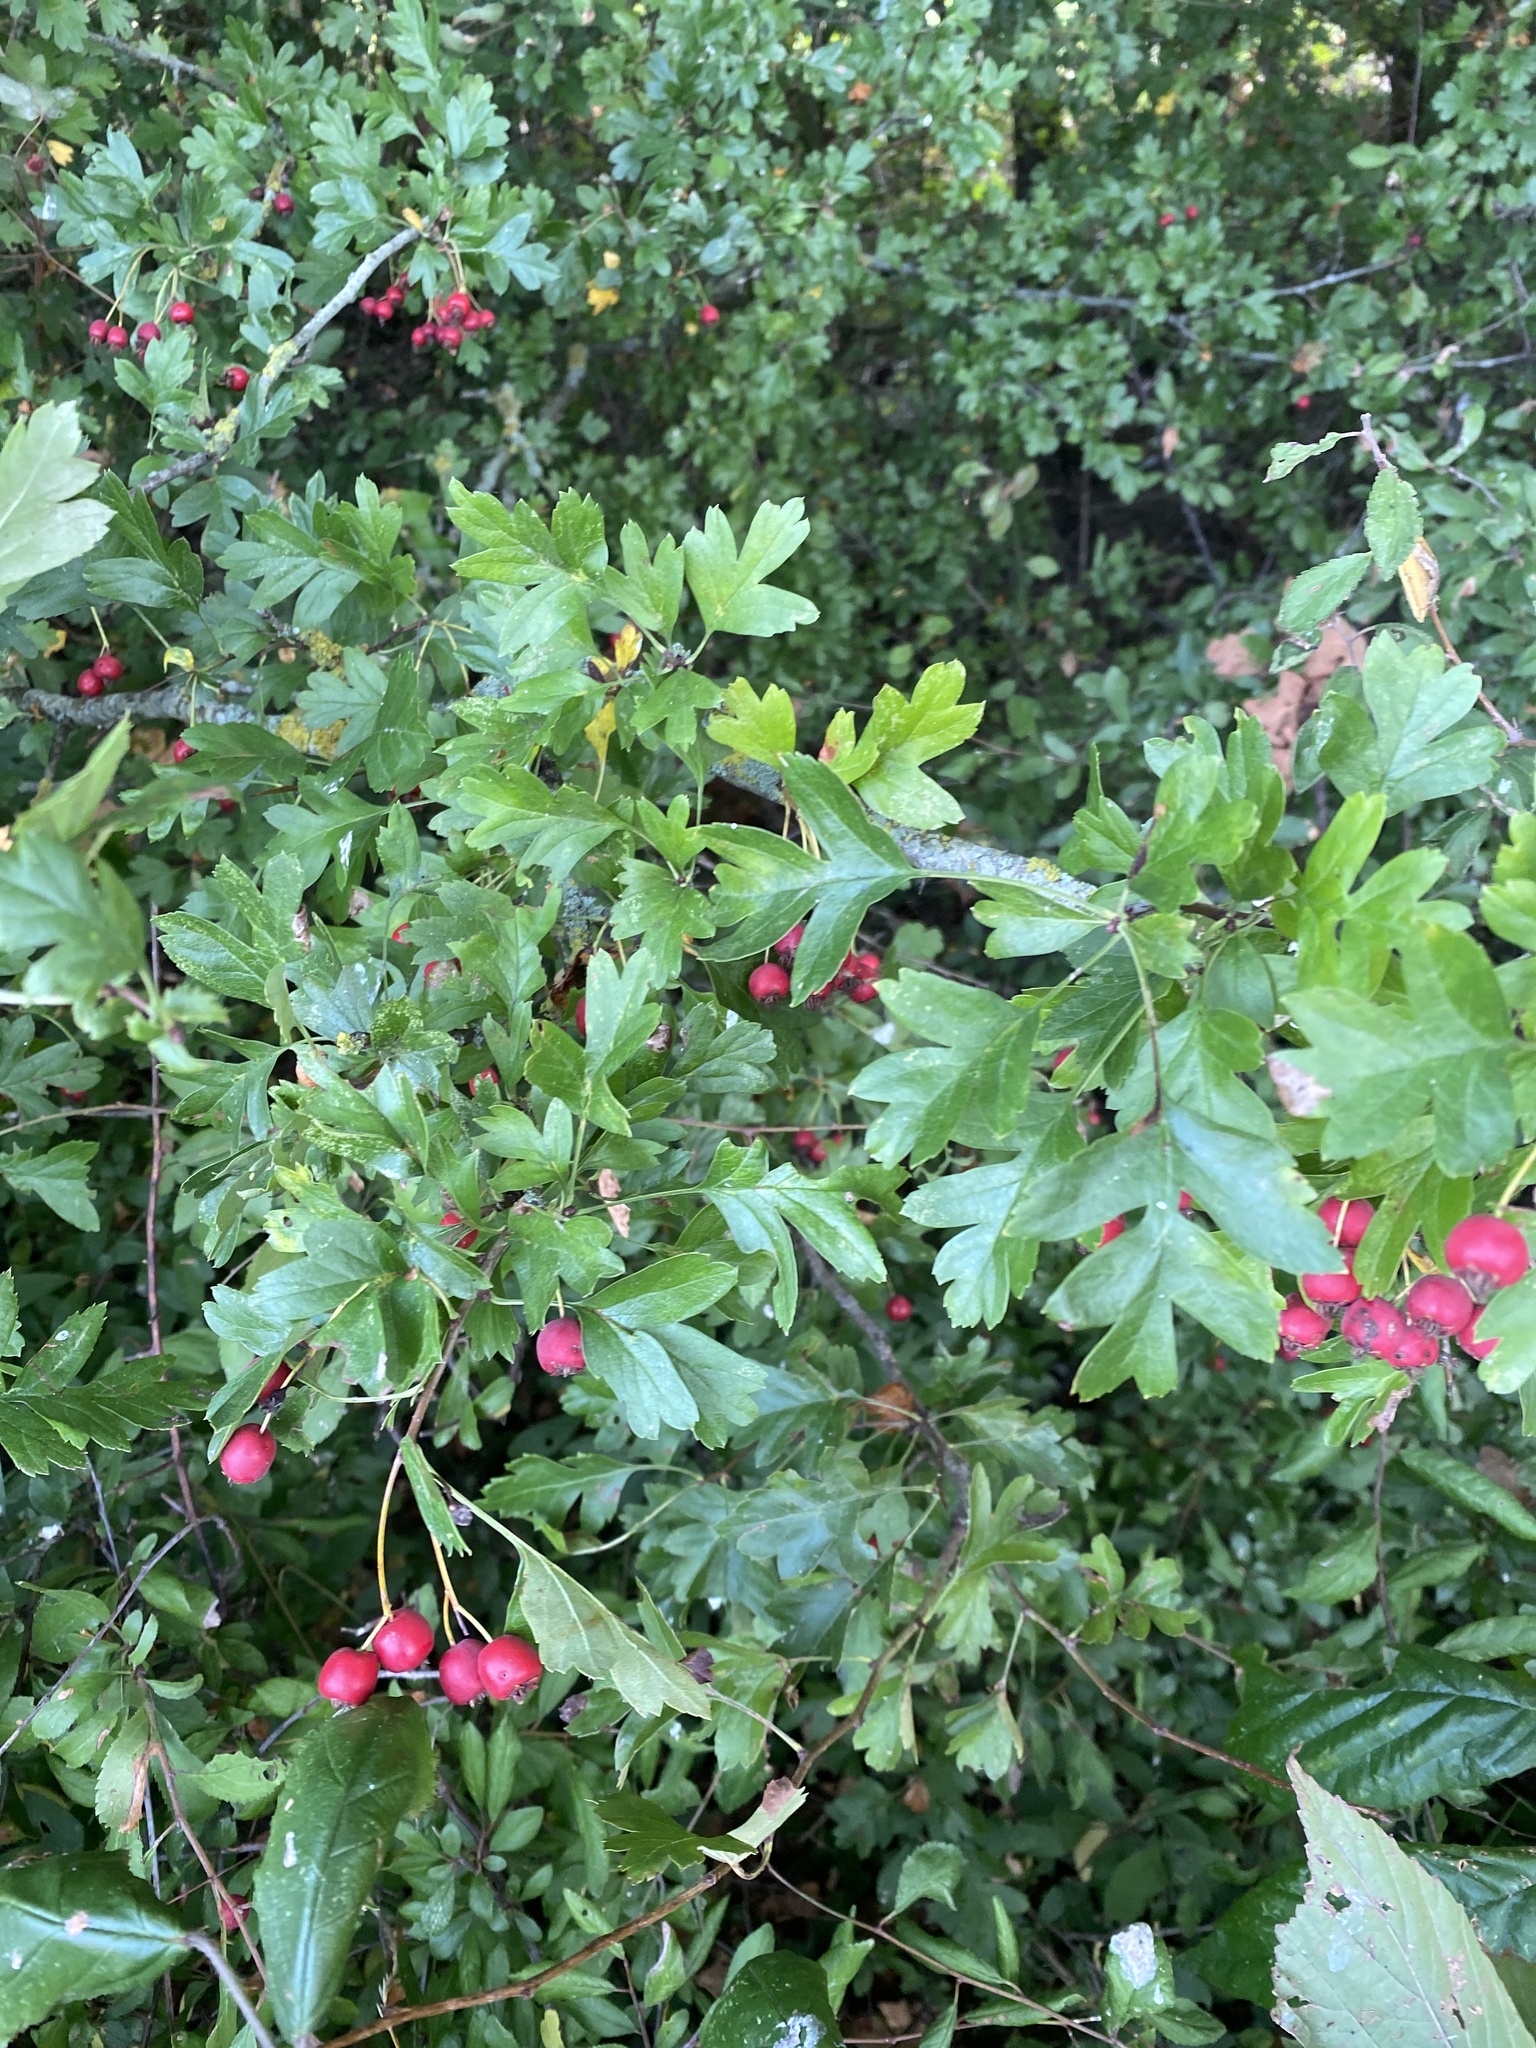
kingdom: Plantae
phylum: Tracheophyta
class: Magnoliopsida
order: Rosales
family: Rosaceae
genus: Crataegus
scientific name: Crataegus monogyna
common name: Hawthorn
